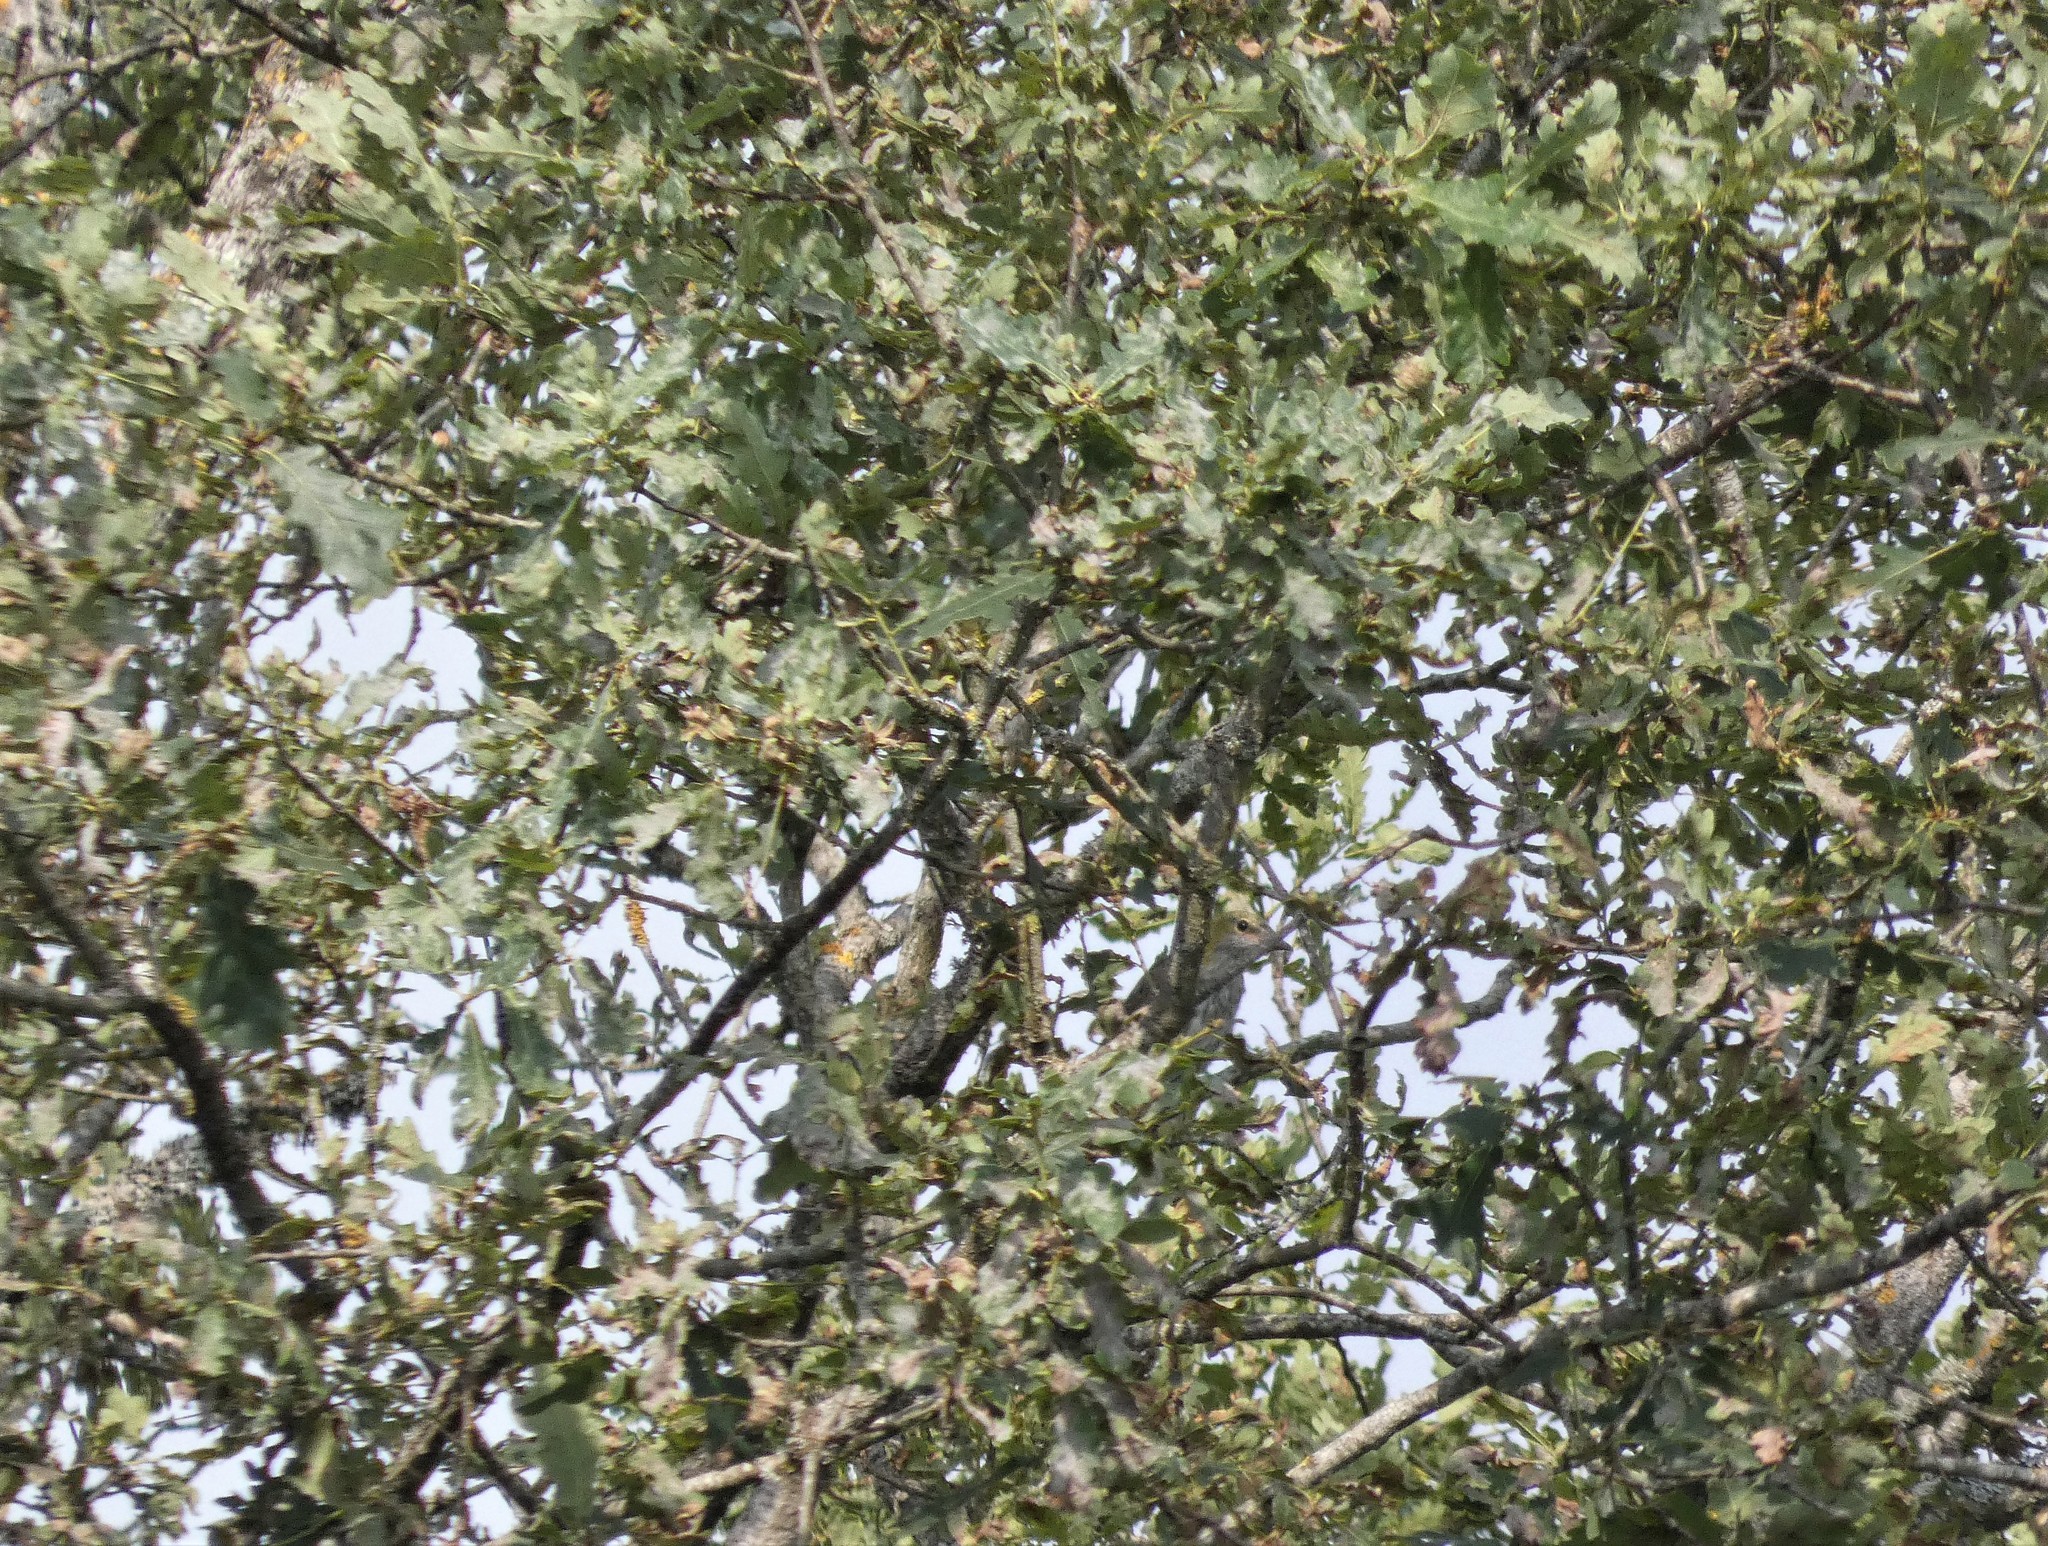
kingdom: Animalia
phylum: Chordata
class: Aves
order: Passeriformes
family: Oriolidae
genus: Oriolus
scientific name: Oriolus oriolus
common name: Eurasian golden oriole
